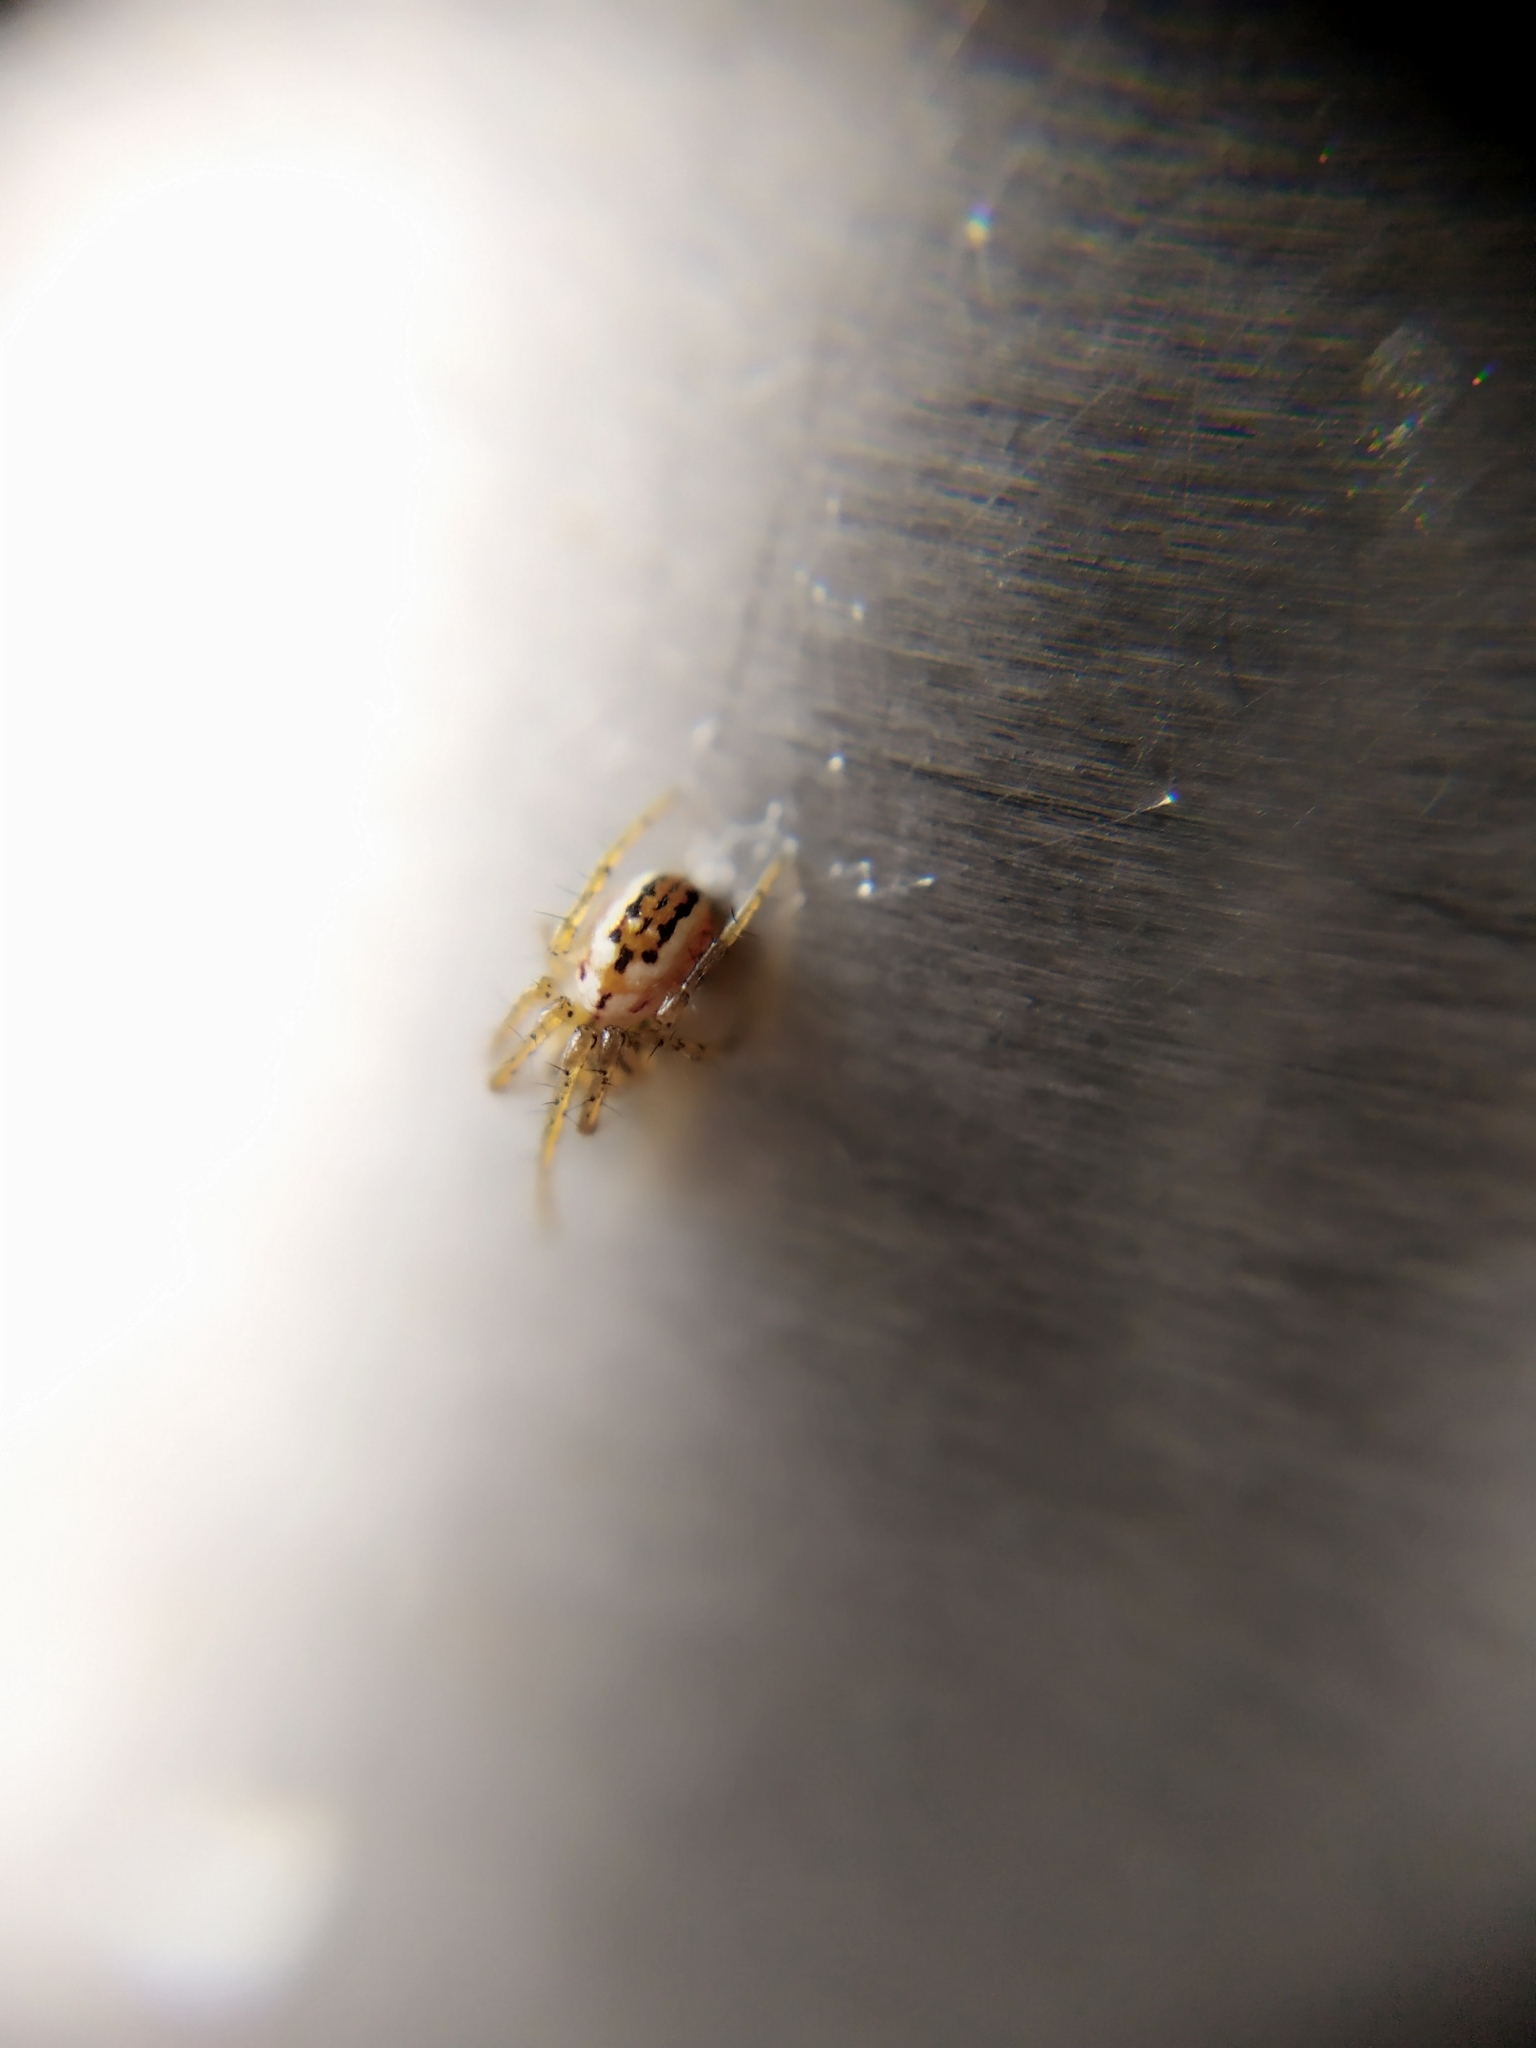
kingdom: Animalia
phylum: Arthropoda
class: Arachnida
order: Araneae
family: Araneidae
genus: Mangora
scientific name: Mangora acalypha
